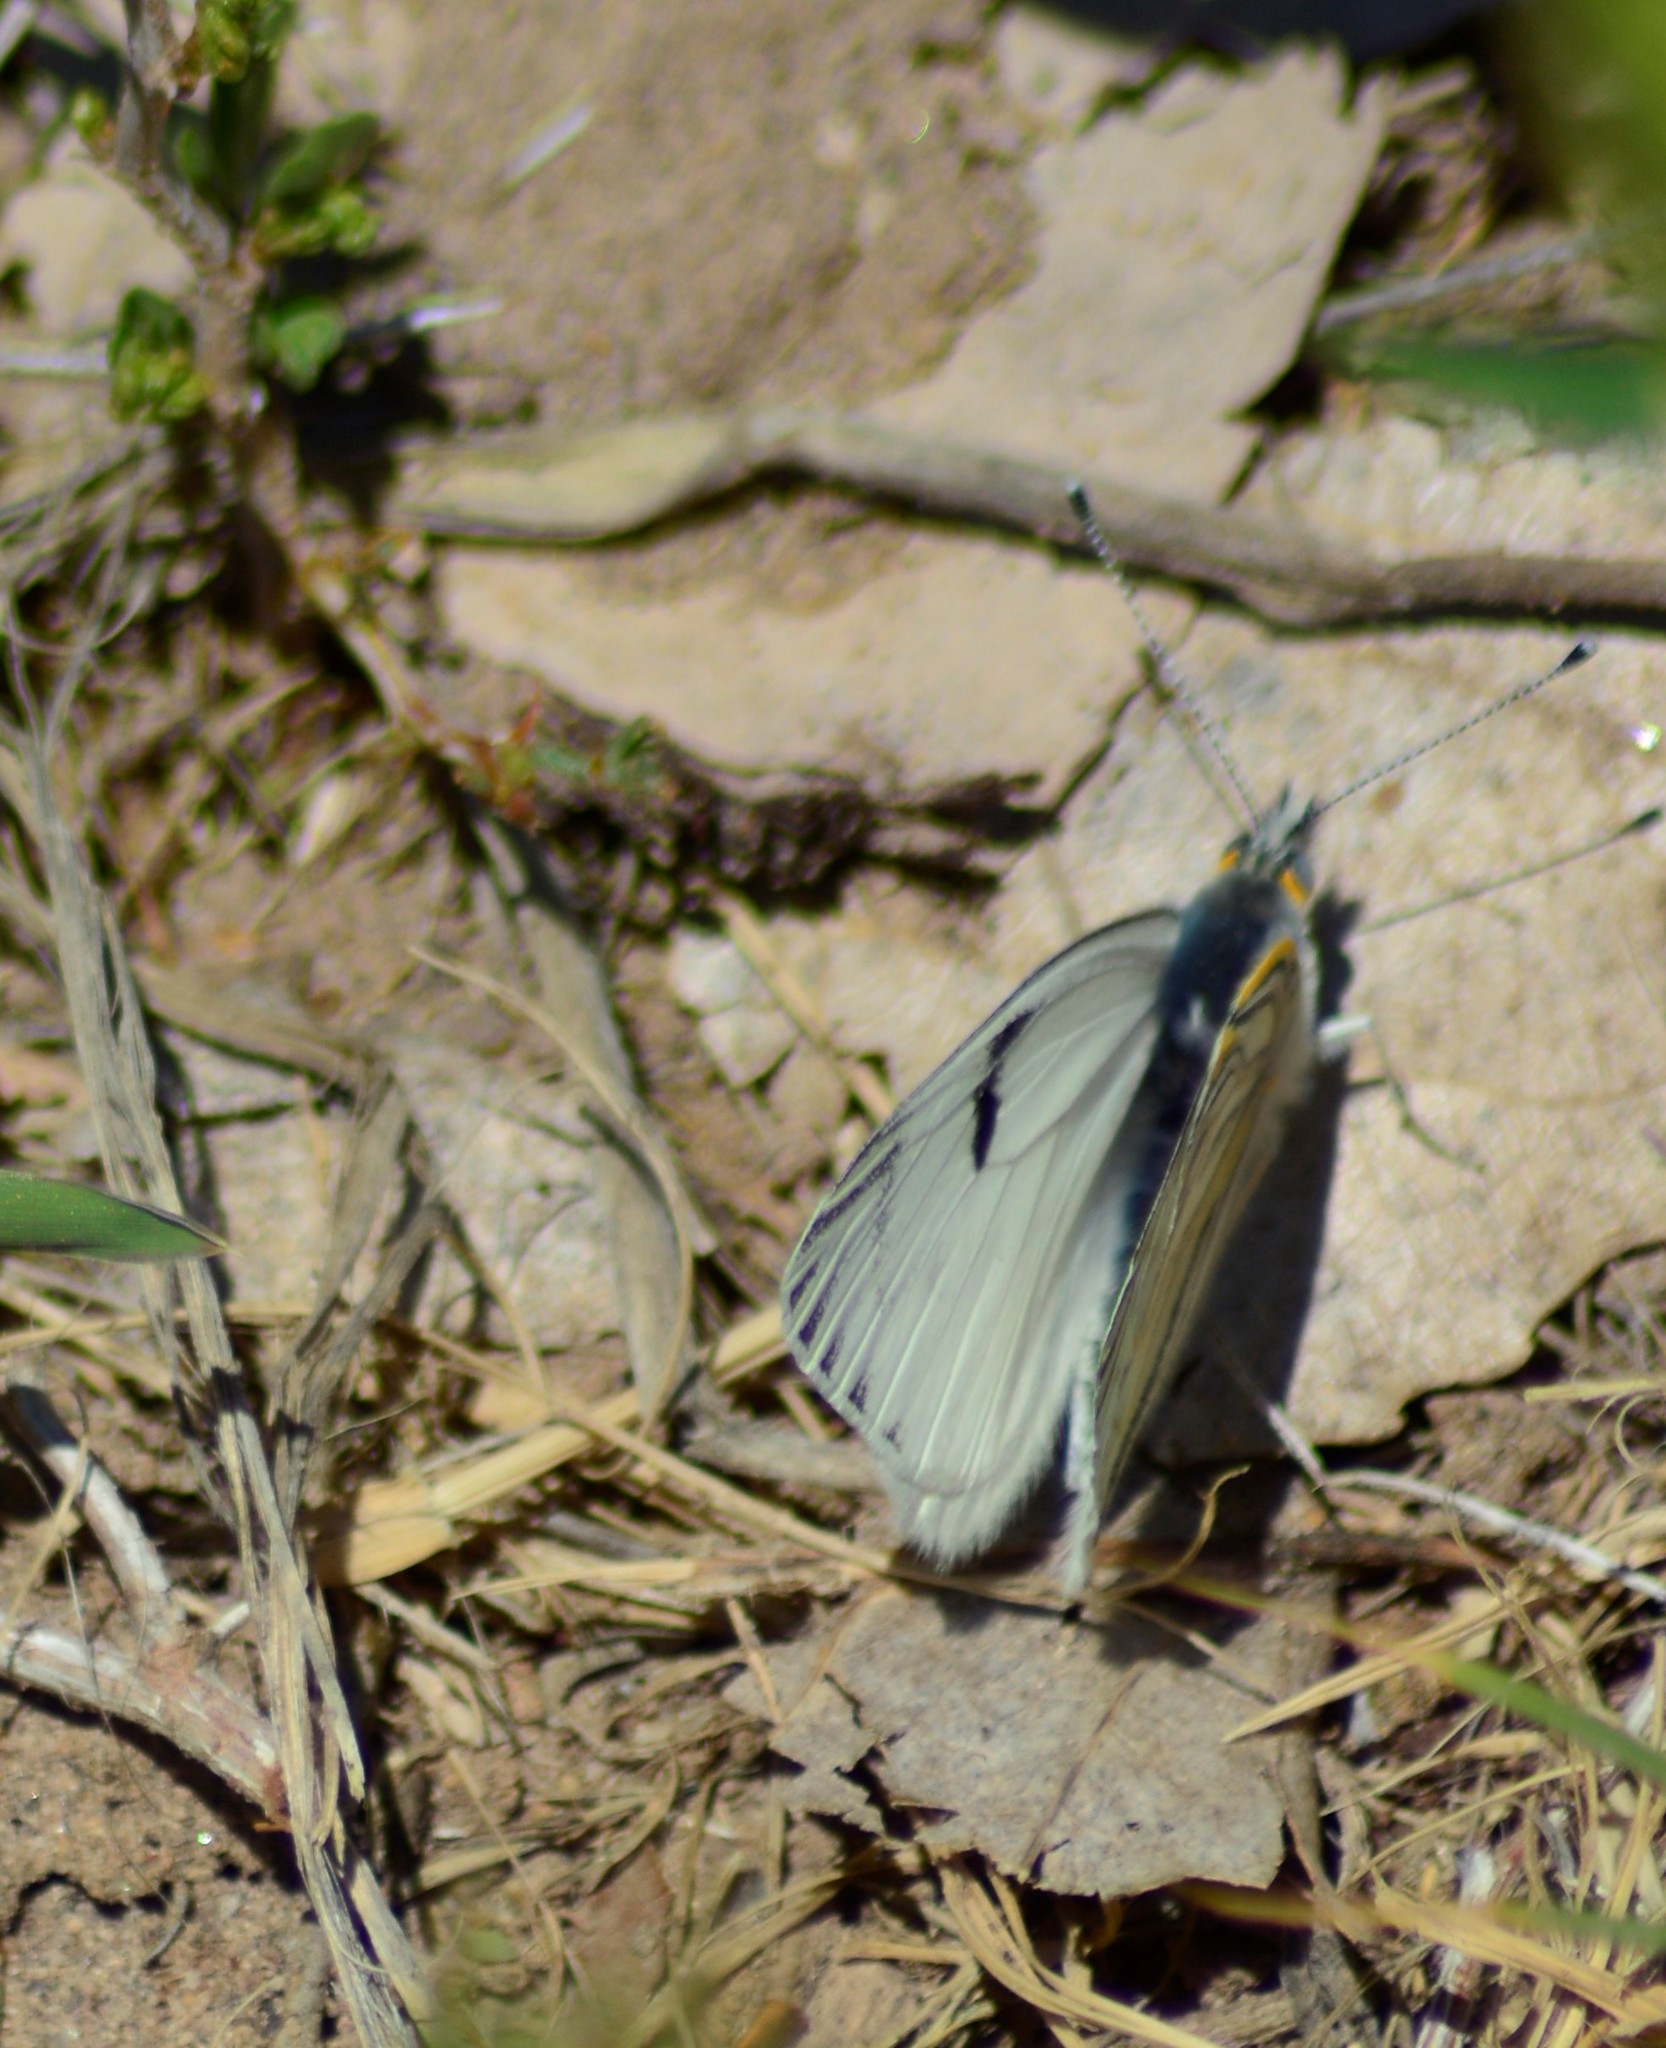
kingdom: Animalia
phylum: Arthropoda
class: Insecta
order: Lepidoptera
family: Pieridae
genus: Tatochila
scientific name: Tatochila mercedis
